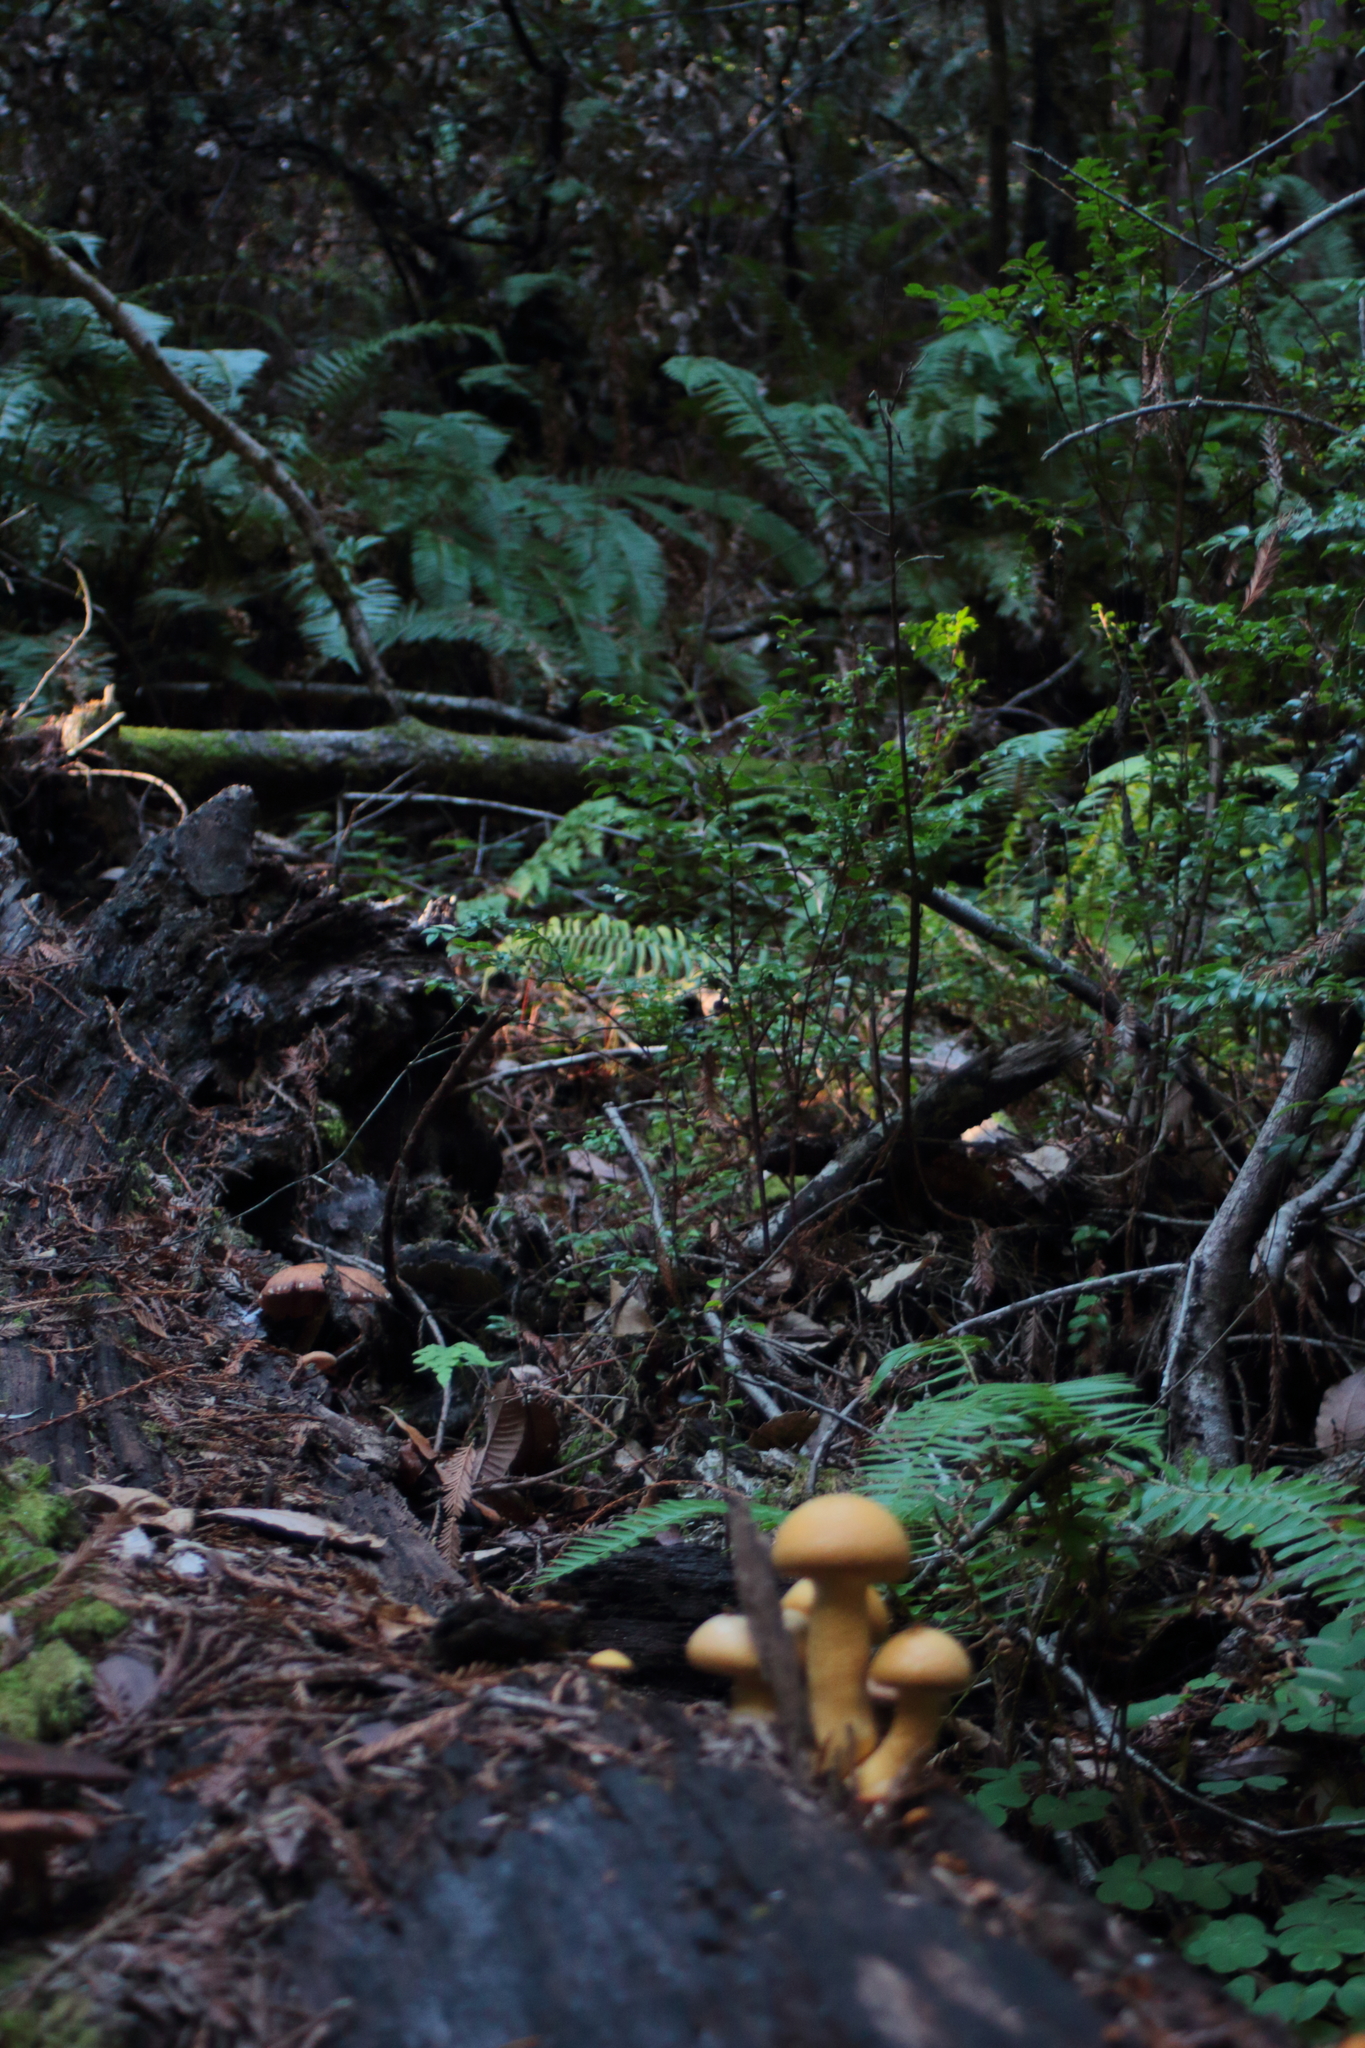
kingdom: Fungi
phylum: Basidiomycota
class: Agaricomycetes
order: Agaricales
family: Hymenogastraceae
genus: Gymnopilus
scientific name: Gymnopilus ventricosus
